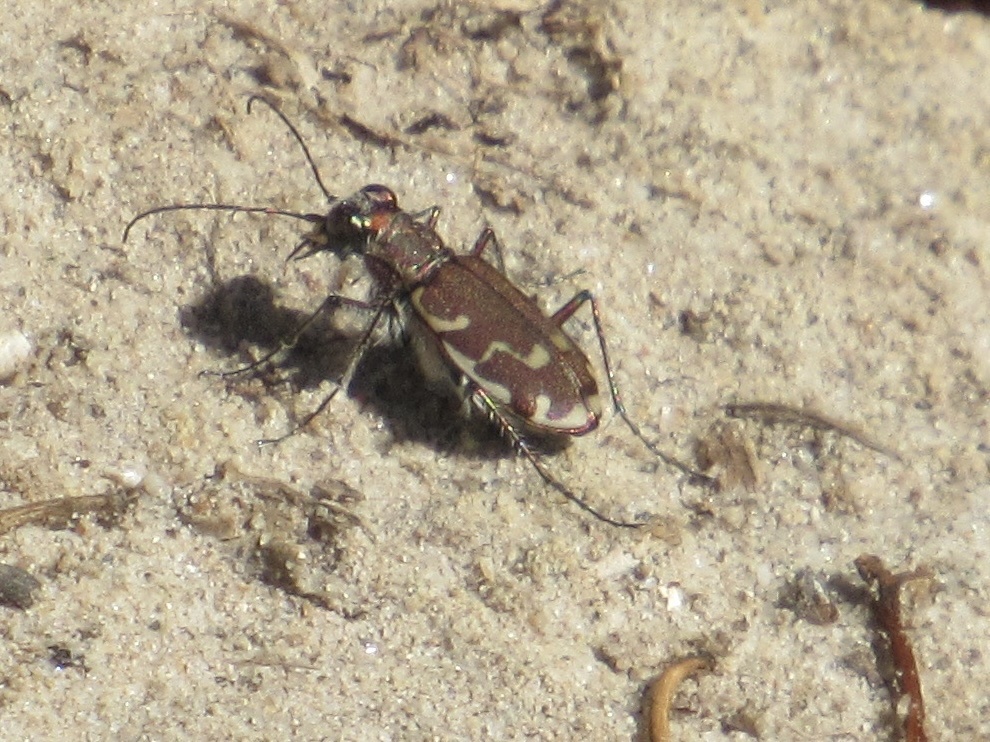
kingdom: Animalia
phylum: Arthropoda
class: Insecta
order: Coleoptera
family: Carabidae
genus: Cicindela
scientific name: Cicindela repanda
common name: Bronzed tiger beetle
